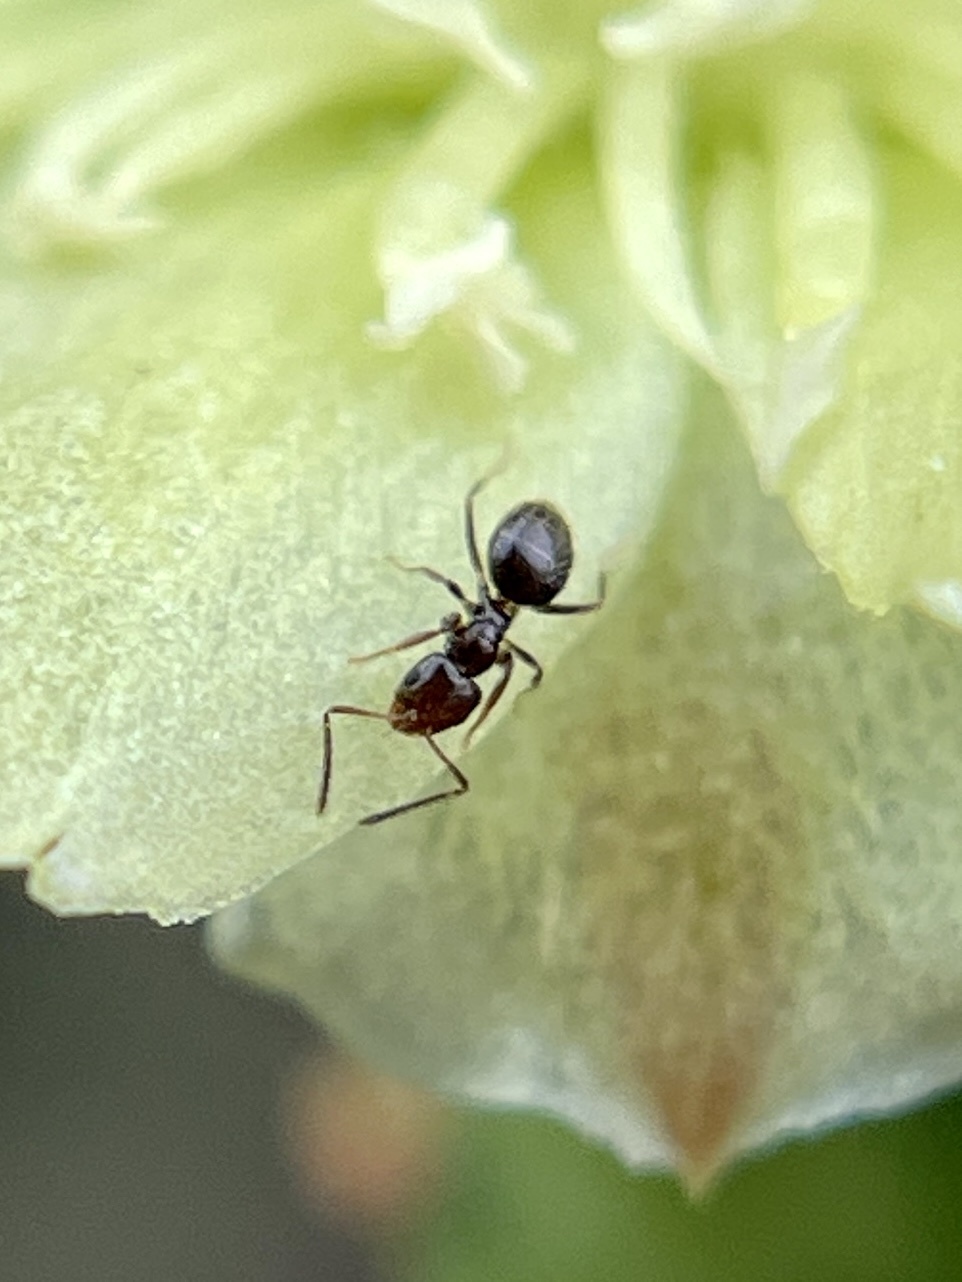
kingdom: Animalia
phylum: Arthropoda
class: Insecta
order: Hymenoptera
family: Formicidae
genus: Brachymyrmex
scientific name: Brachymyrmex patagonicus
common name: Dark rover ant
